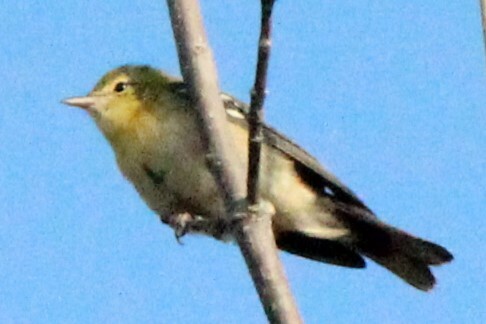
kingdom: Animalia
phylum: Chordata
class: Aves
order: Passeriformes
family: Parulidae
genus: Setophaga
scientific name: Setophaga castanea
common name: Bay-breasted warbler
